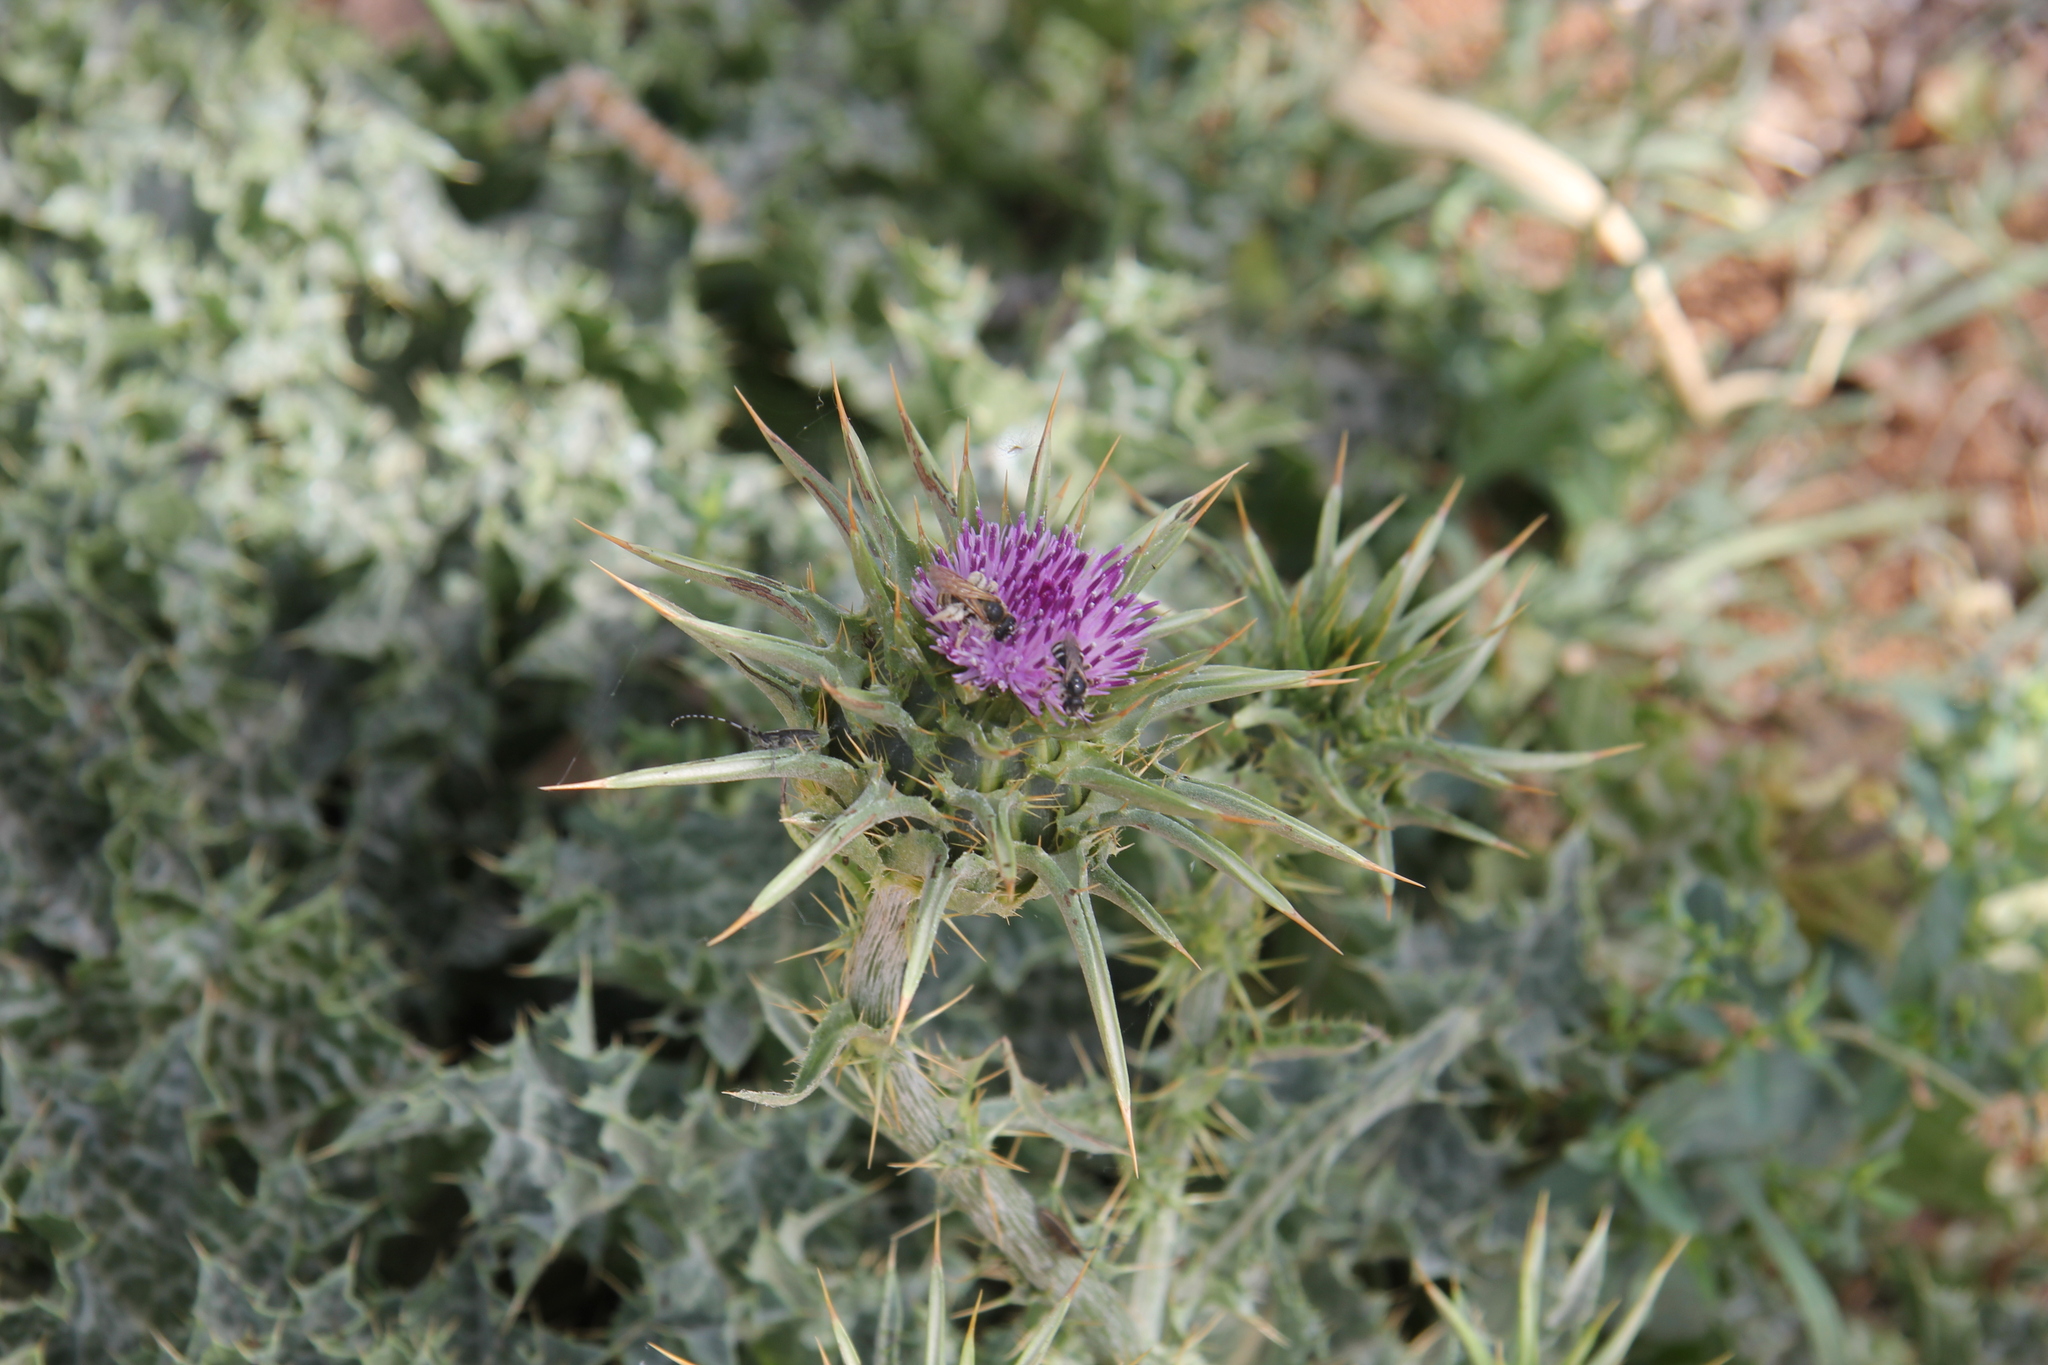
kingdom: Plantae
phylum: Tracheophyta
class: Magnoliopsida
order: Asterales
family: Asteraceae
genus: Silybum
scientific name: Silybum marianum
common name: Milk thistle
